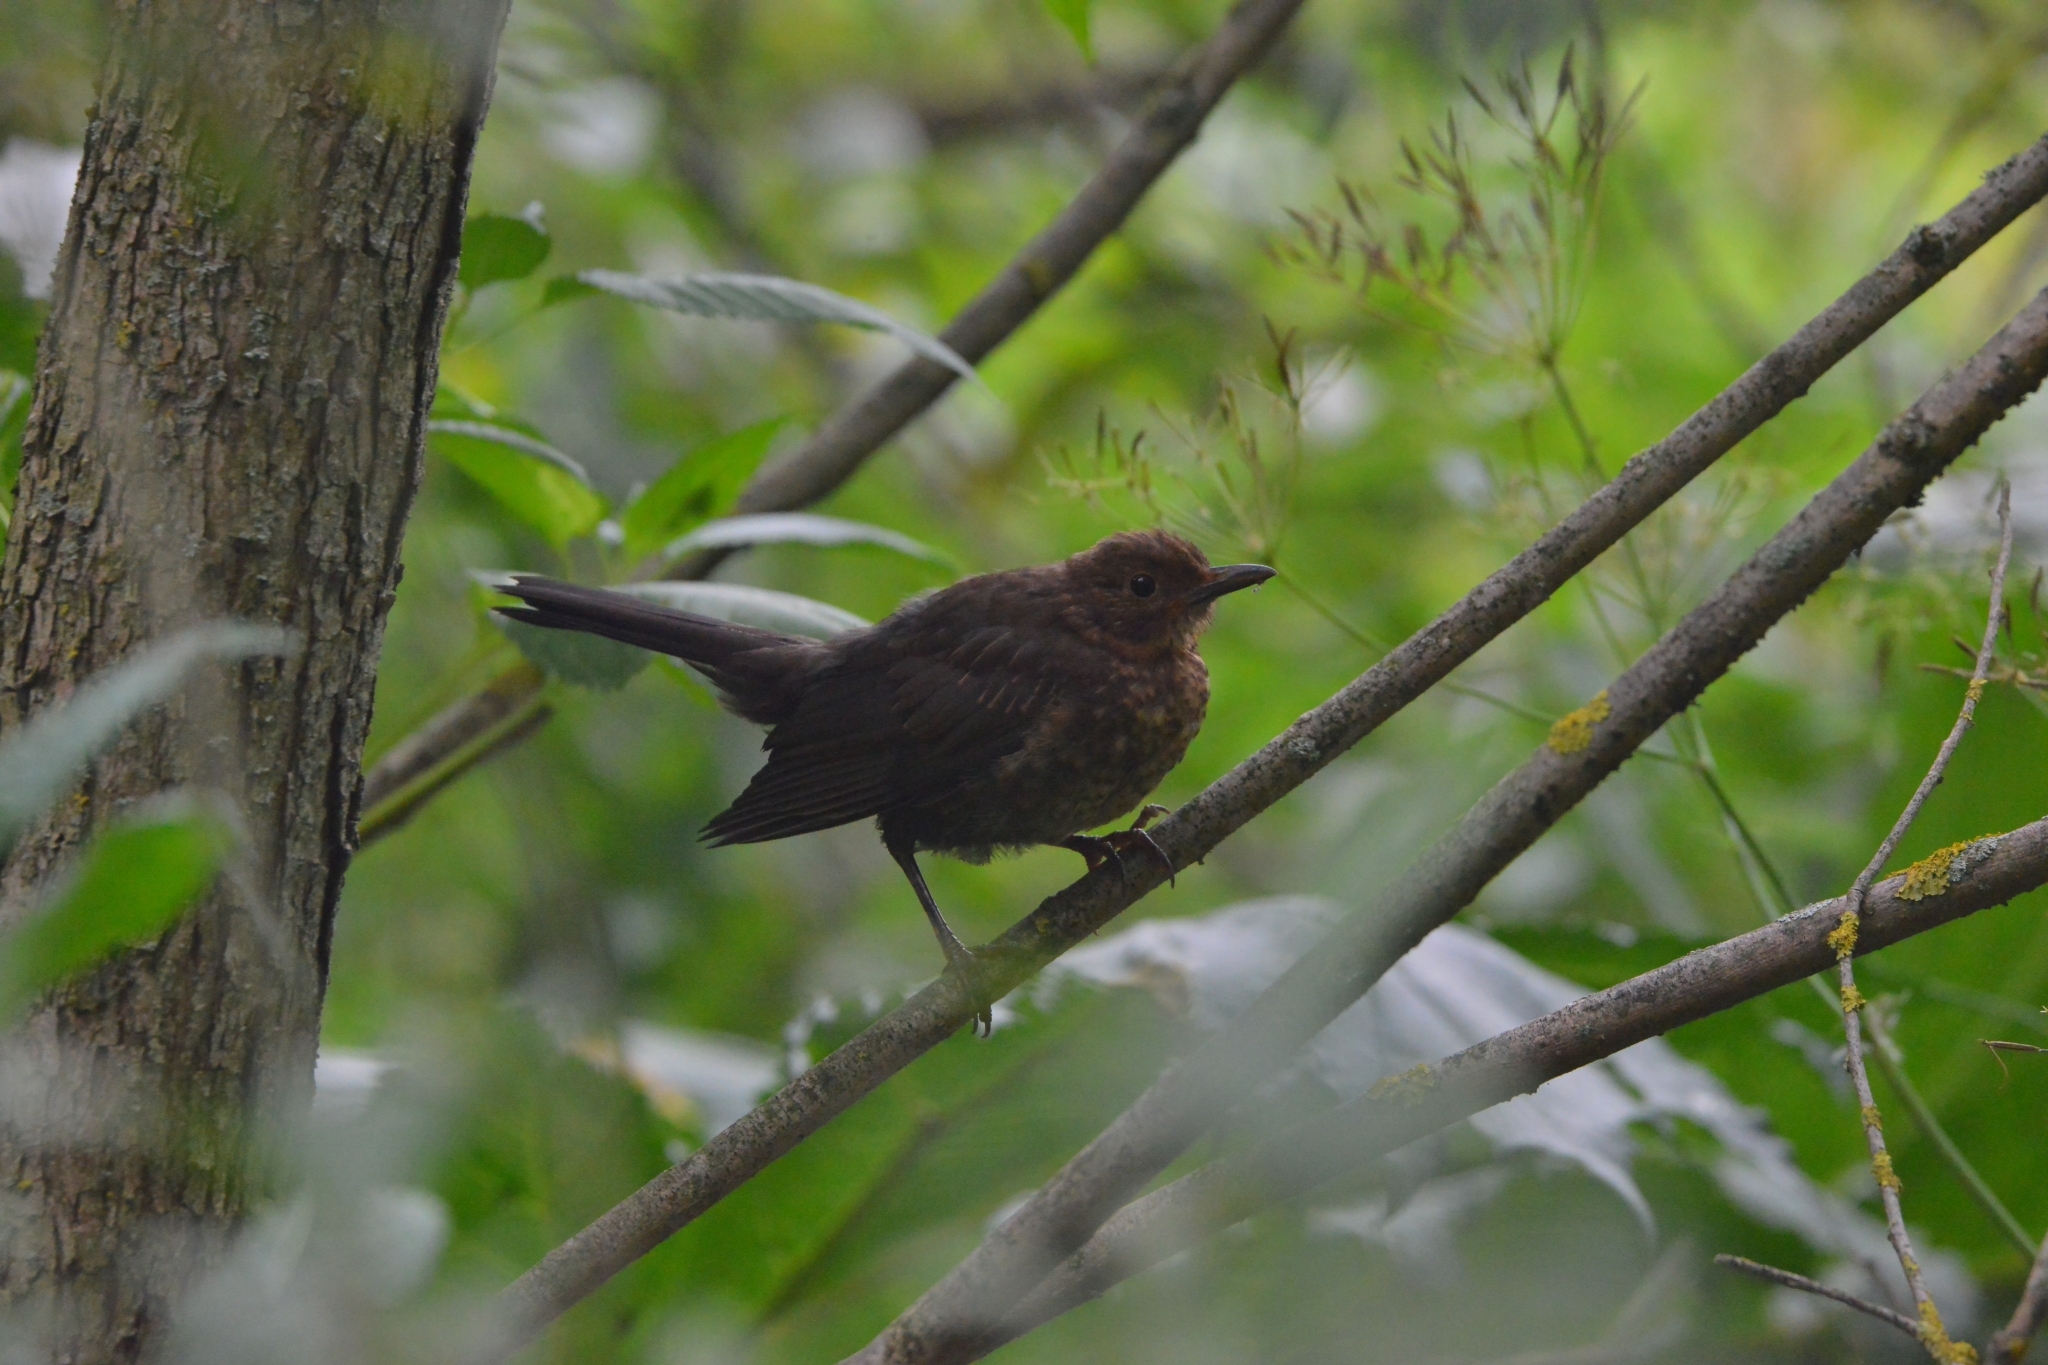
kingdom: Animalia
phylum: Chordata
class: Aves
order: Passeriformes
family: Turdidae
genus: Turdus
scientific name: Turdus merula
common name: Common blackbird
